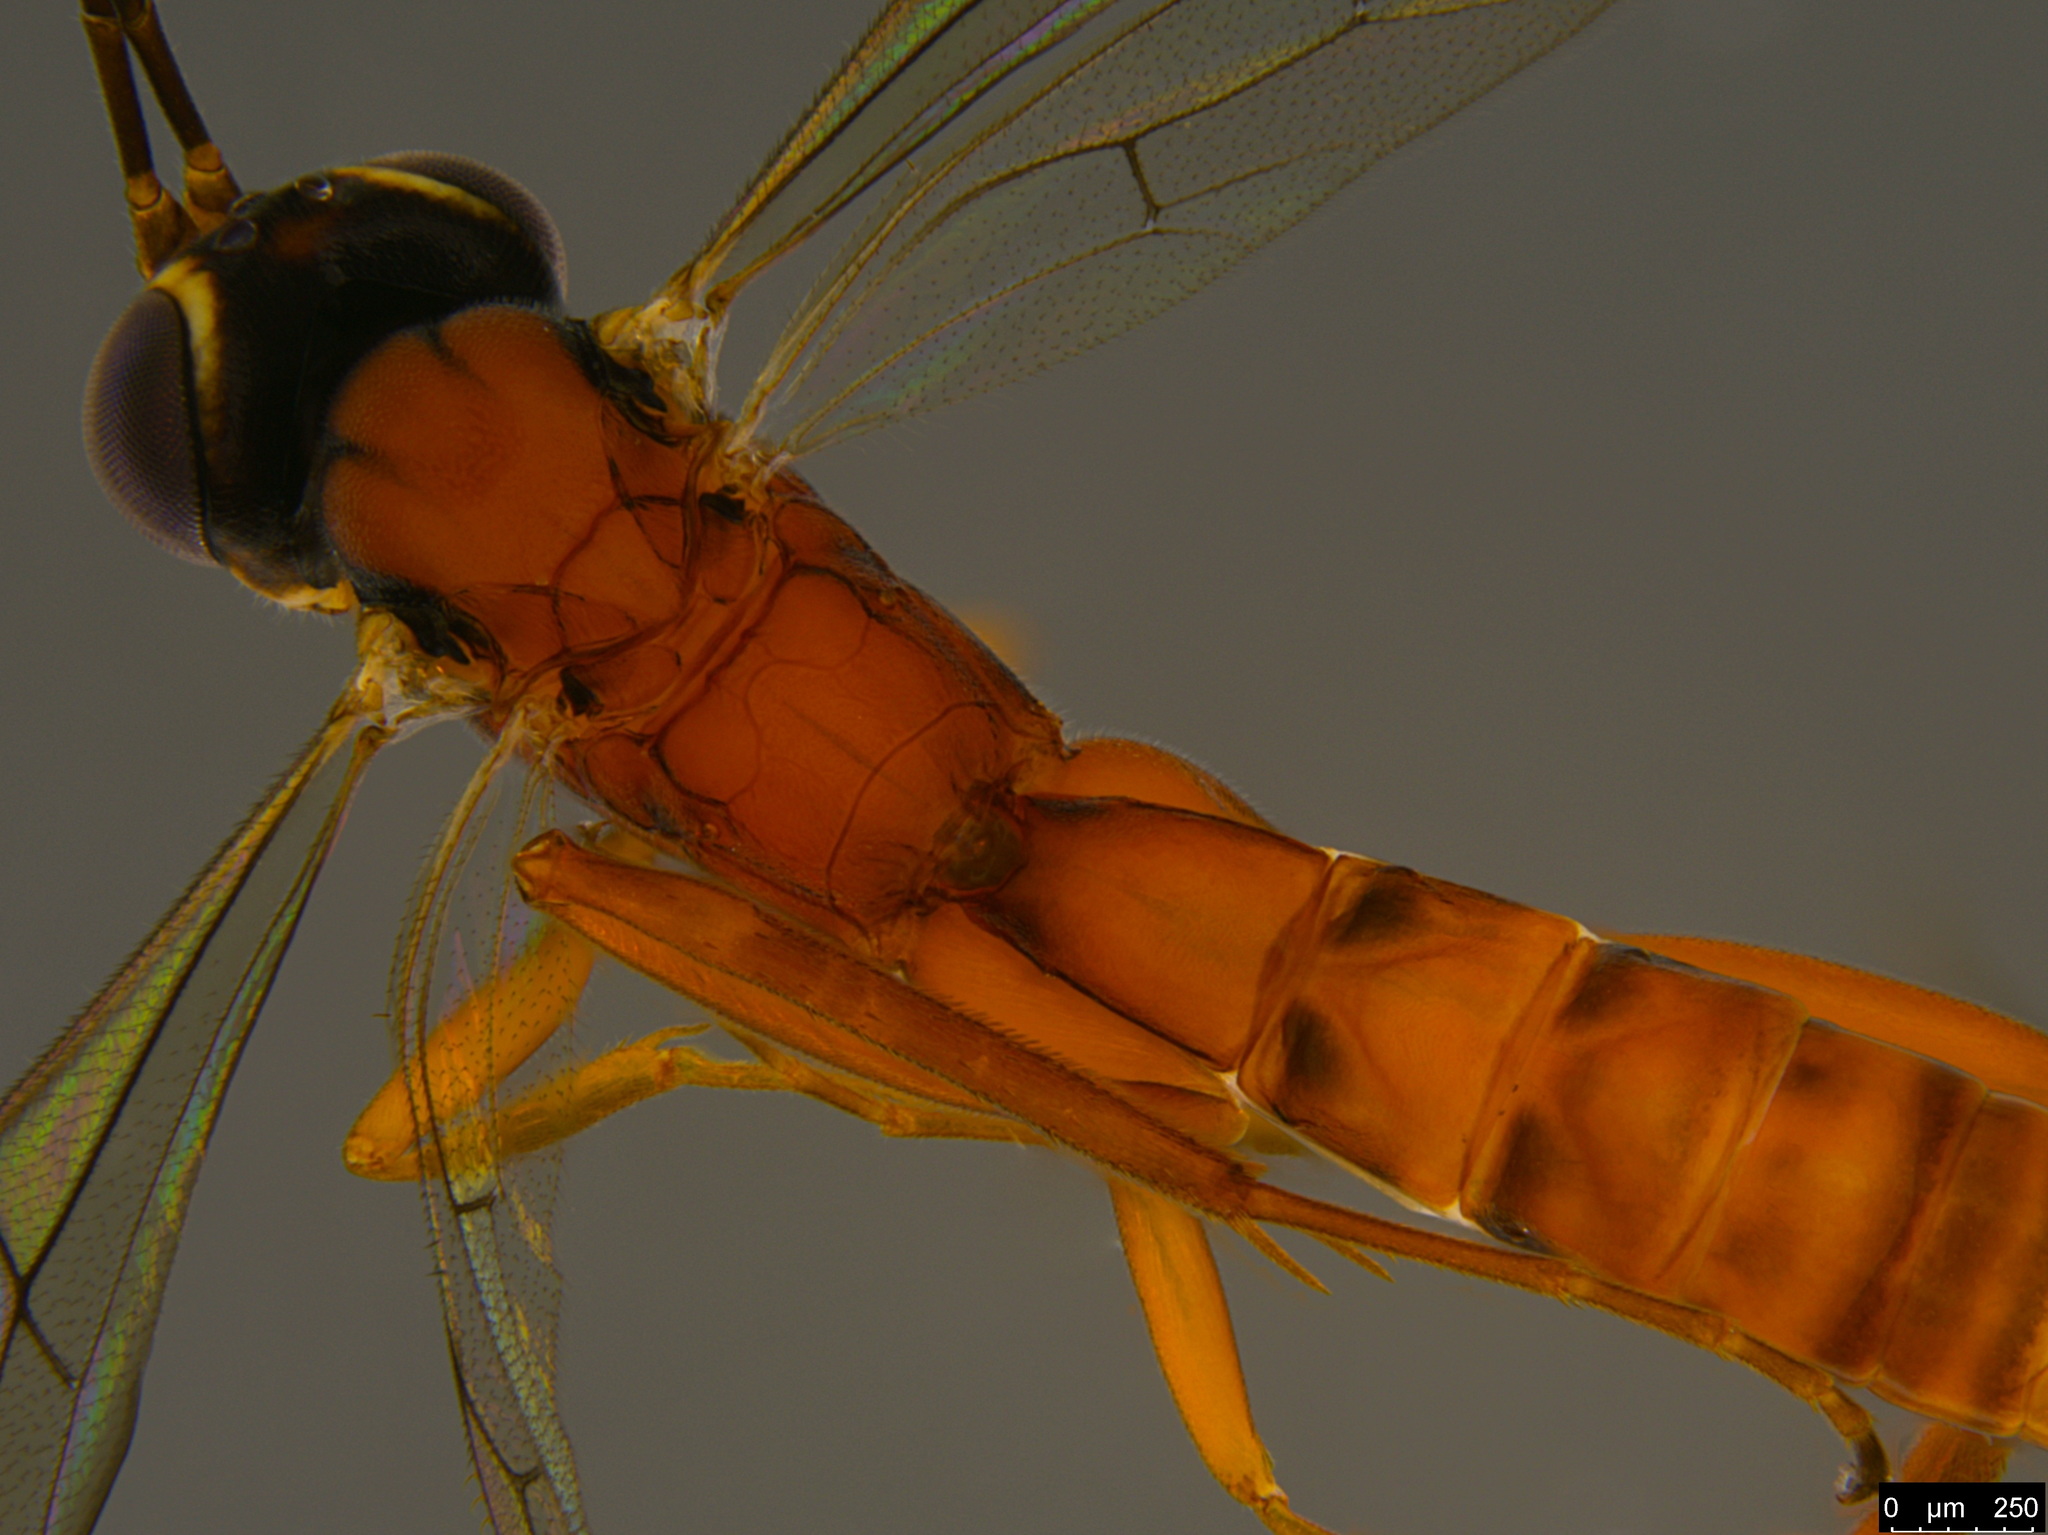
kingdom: Animalia
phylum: Arthropoda
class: Insecta
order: Hymenoptera
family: Ichneumonidae
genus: Australoglypta
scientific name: Australoglypta
